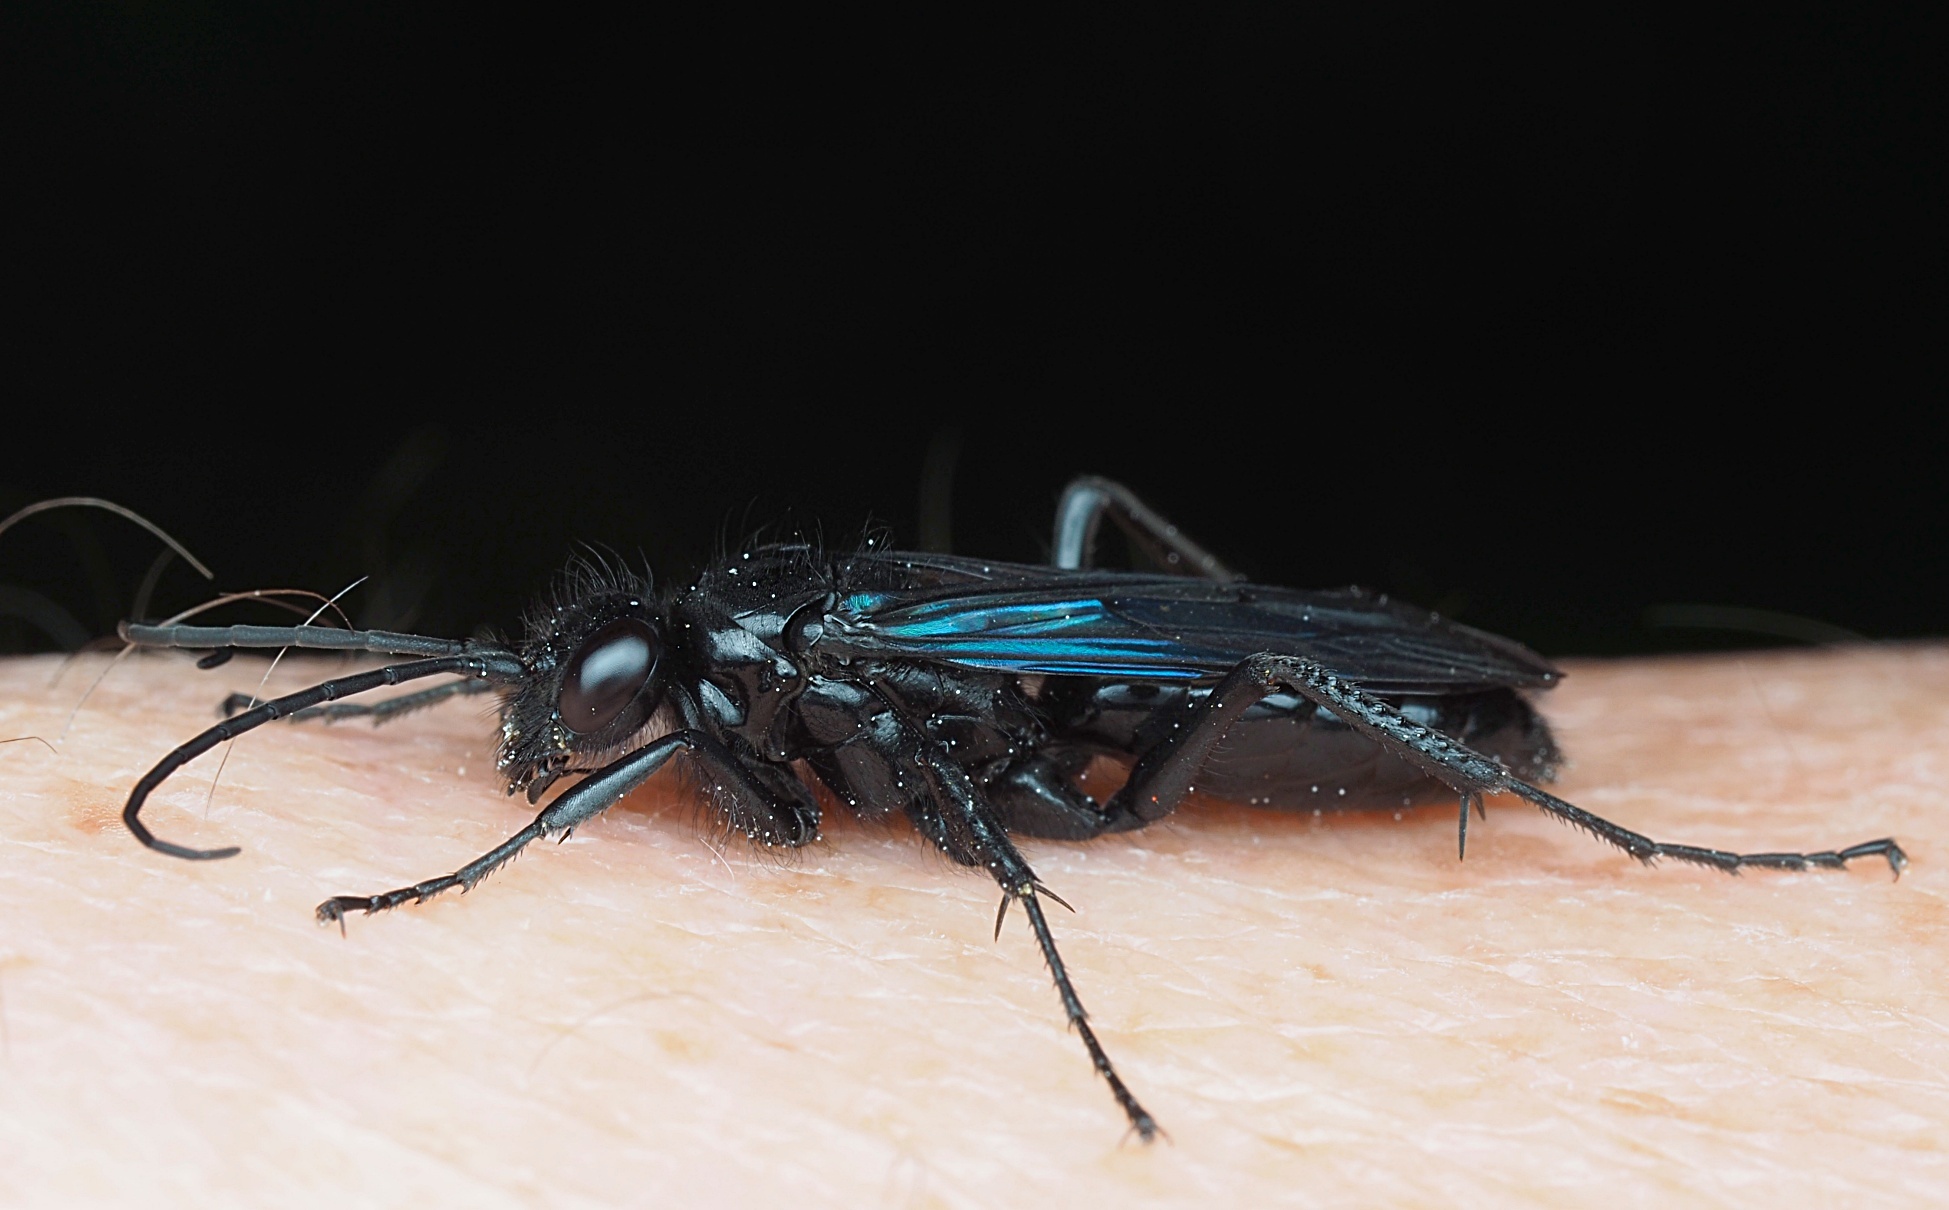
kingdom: Animalia
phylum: Arthropoda
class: Insecta
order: Hymenoptera
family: Pompilidae
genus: Priocnemis
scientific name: Priocnemis monachus
